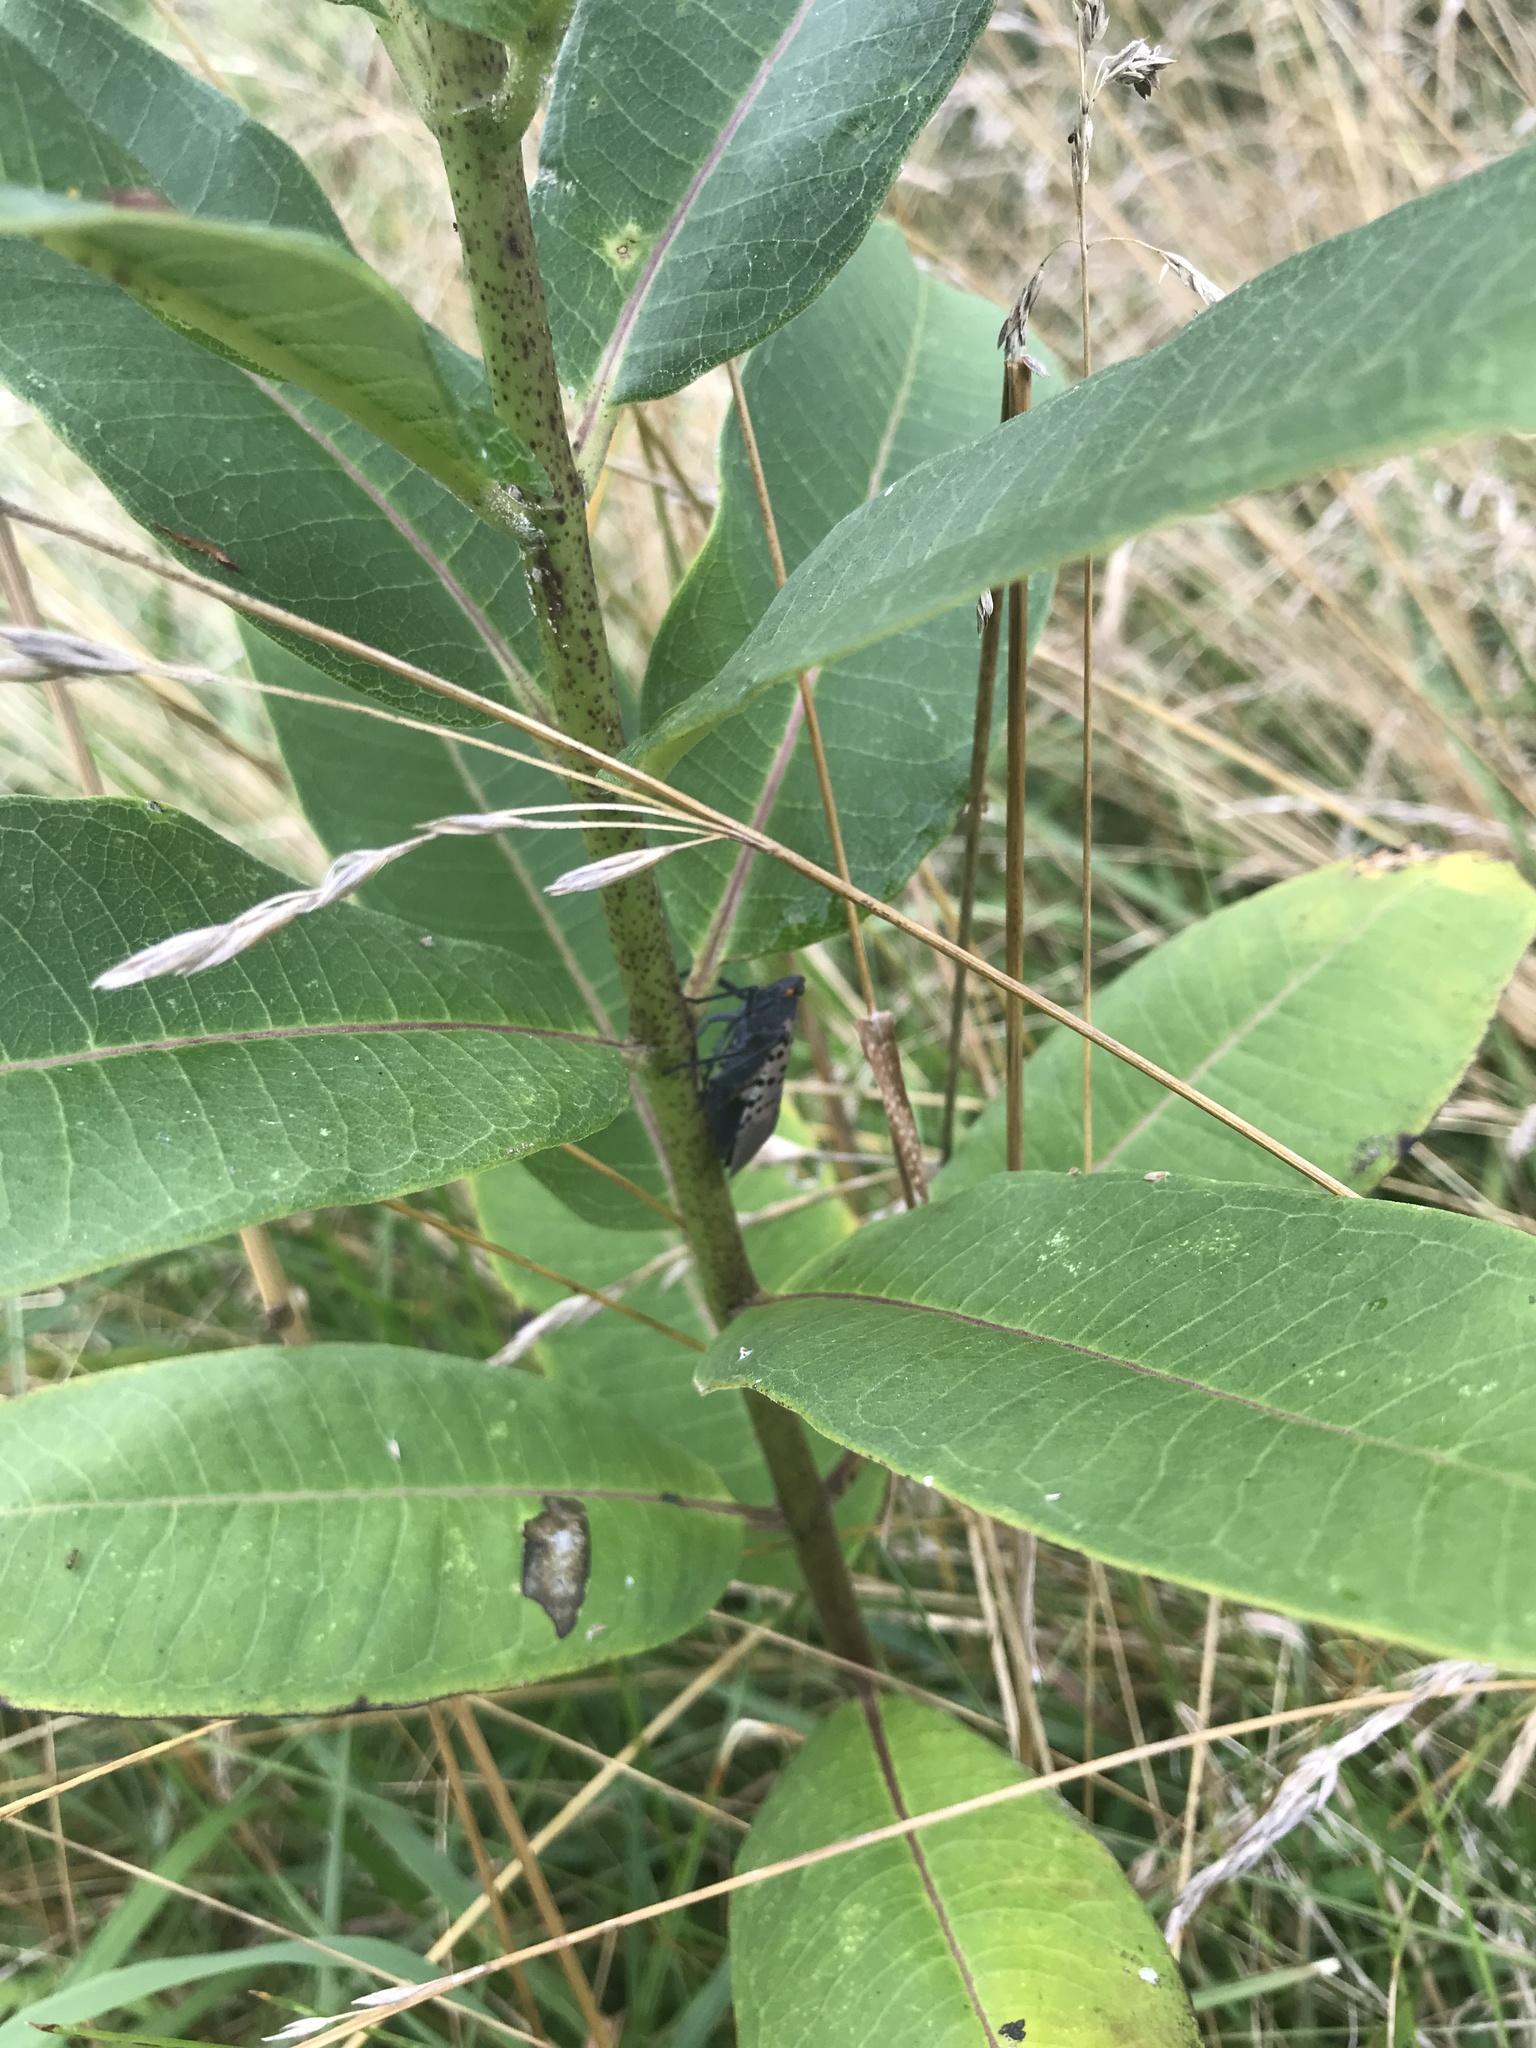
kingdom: Animalia
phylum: Arthropoda
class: Insecta
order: Hemiptera
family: Fulgoridae
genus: Lycorma
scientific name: Lycorma delicatula
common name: Spotted lanternfly
